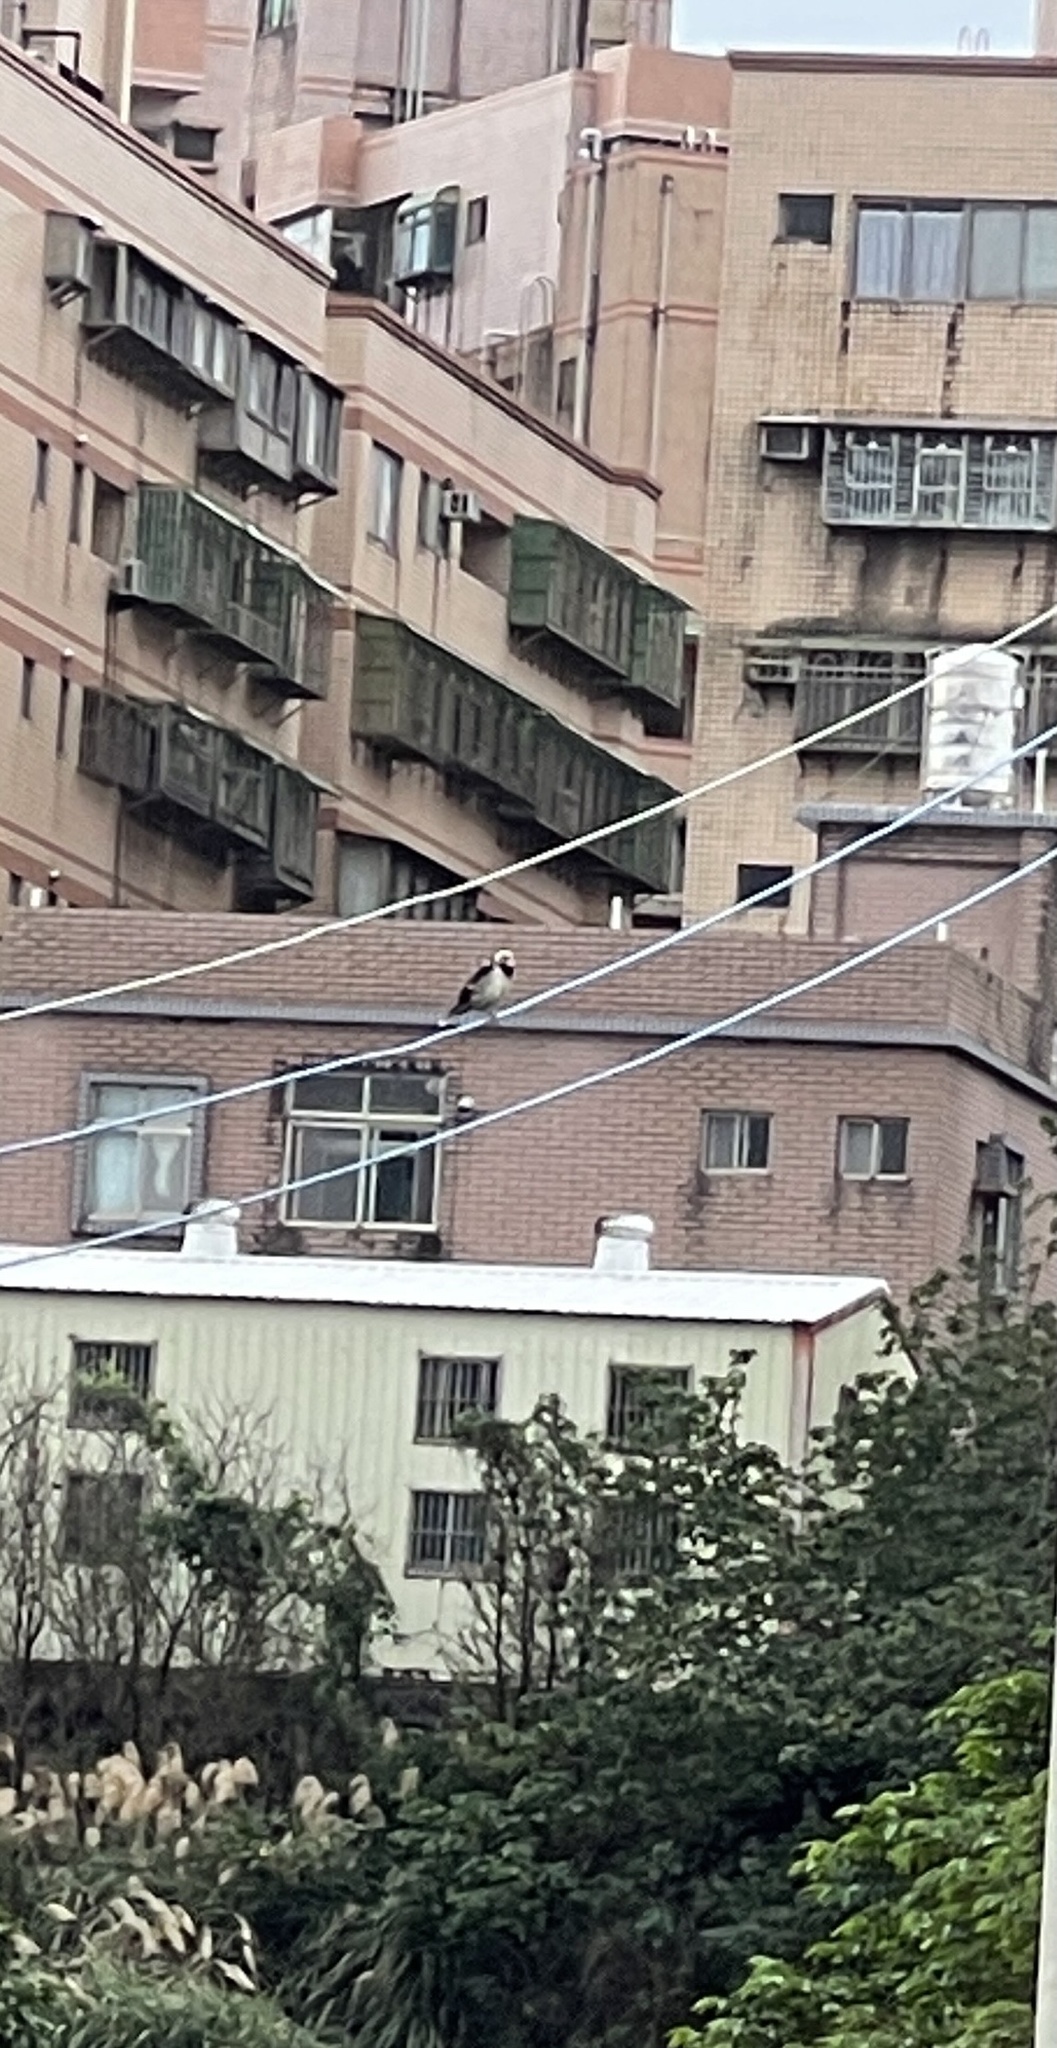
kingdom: Animalia
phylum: Chordata
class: Aves
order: Passeriformes
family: Sturnidae
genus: Gracupica
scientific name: Gracupica nigricollis
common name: Black-collared starling
